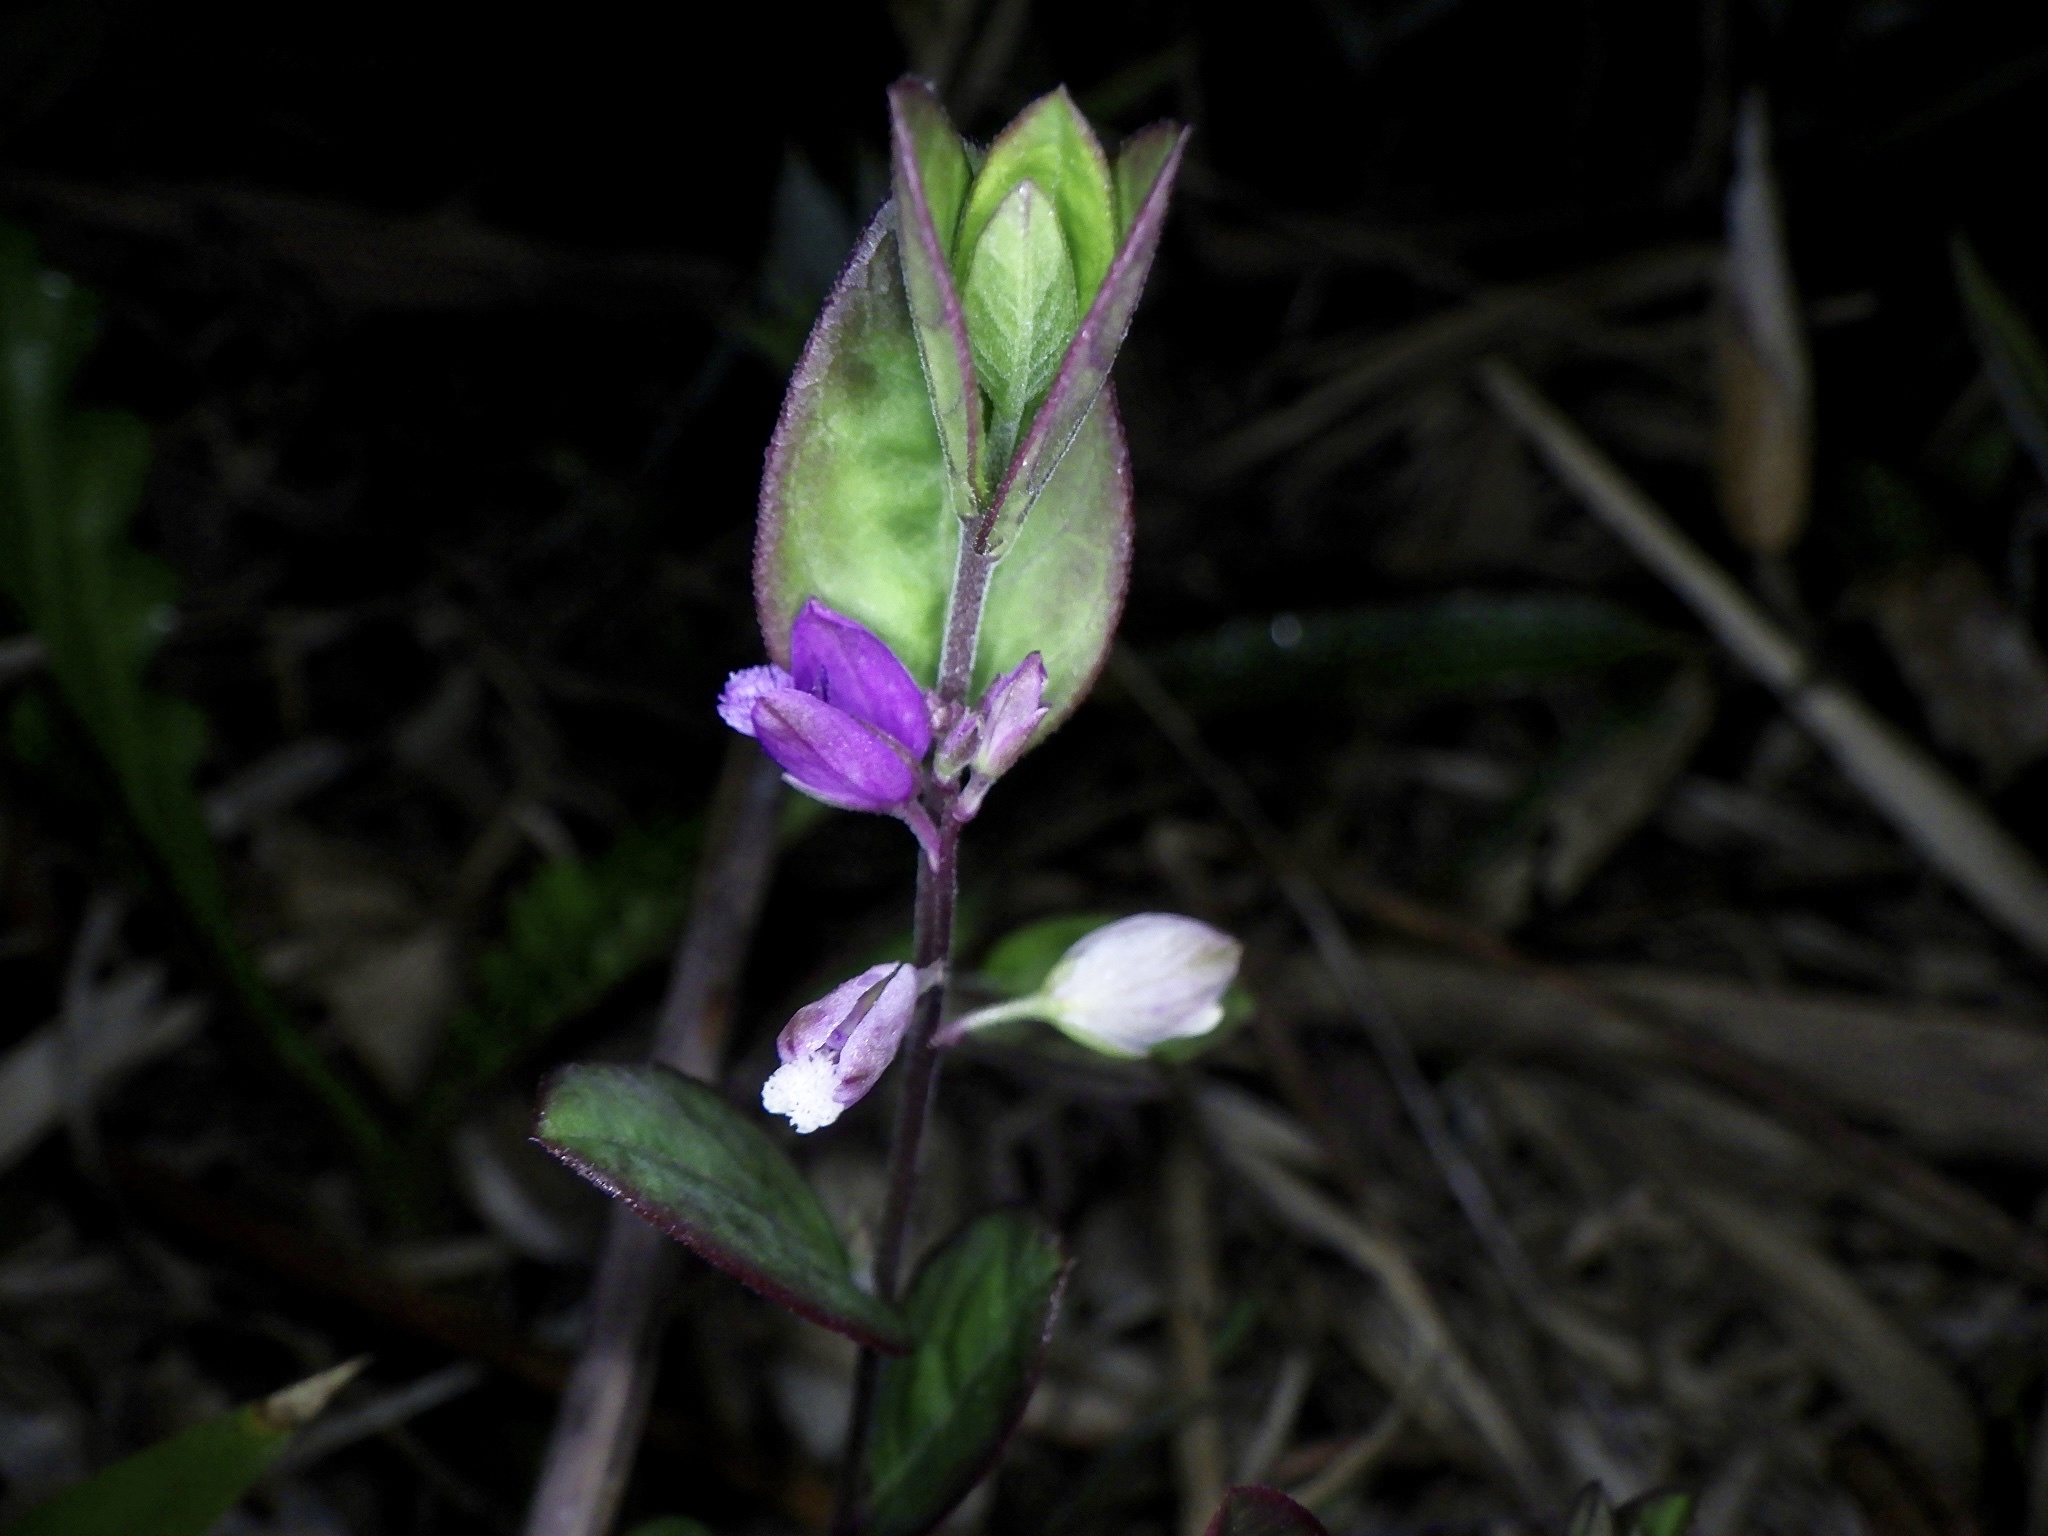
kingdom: Plantae
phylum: Tracheophyta
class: Magnoliopsida
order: Fabales
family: Polygalaceae
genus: Polygala
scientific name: Polygala japonica
